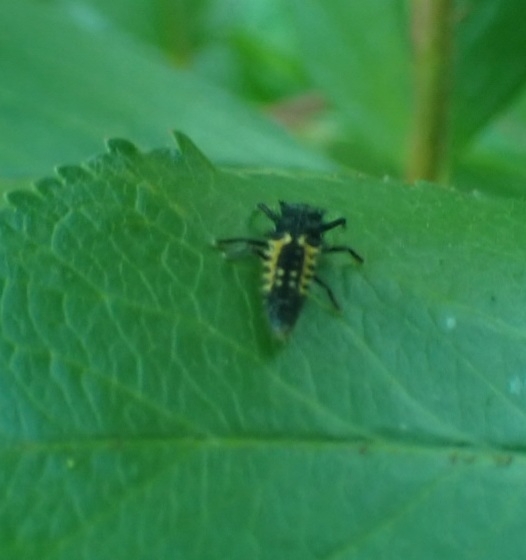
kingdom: Animalia
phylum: Arthropoda
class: Insecta
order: Coleoptera
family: Coccinellidae
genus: Harmonia
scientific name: Harmonia axyridis
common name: Harlequin ladybird
